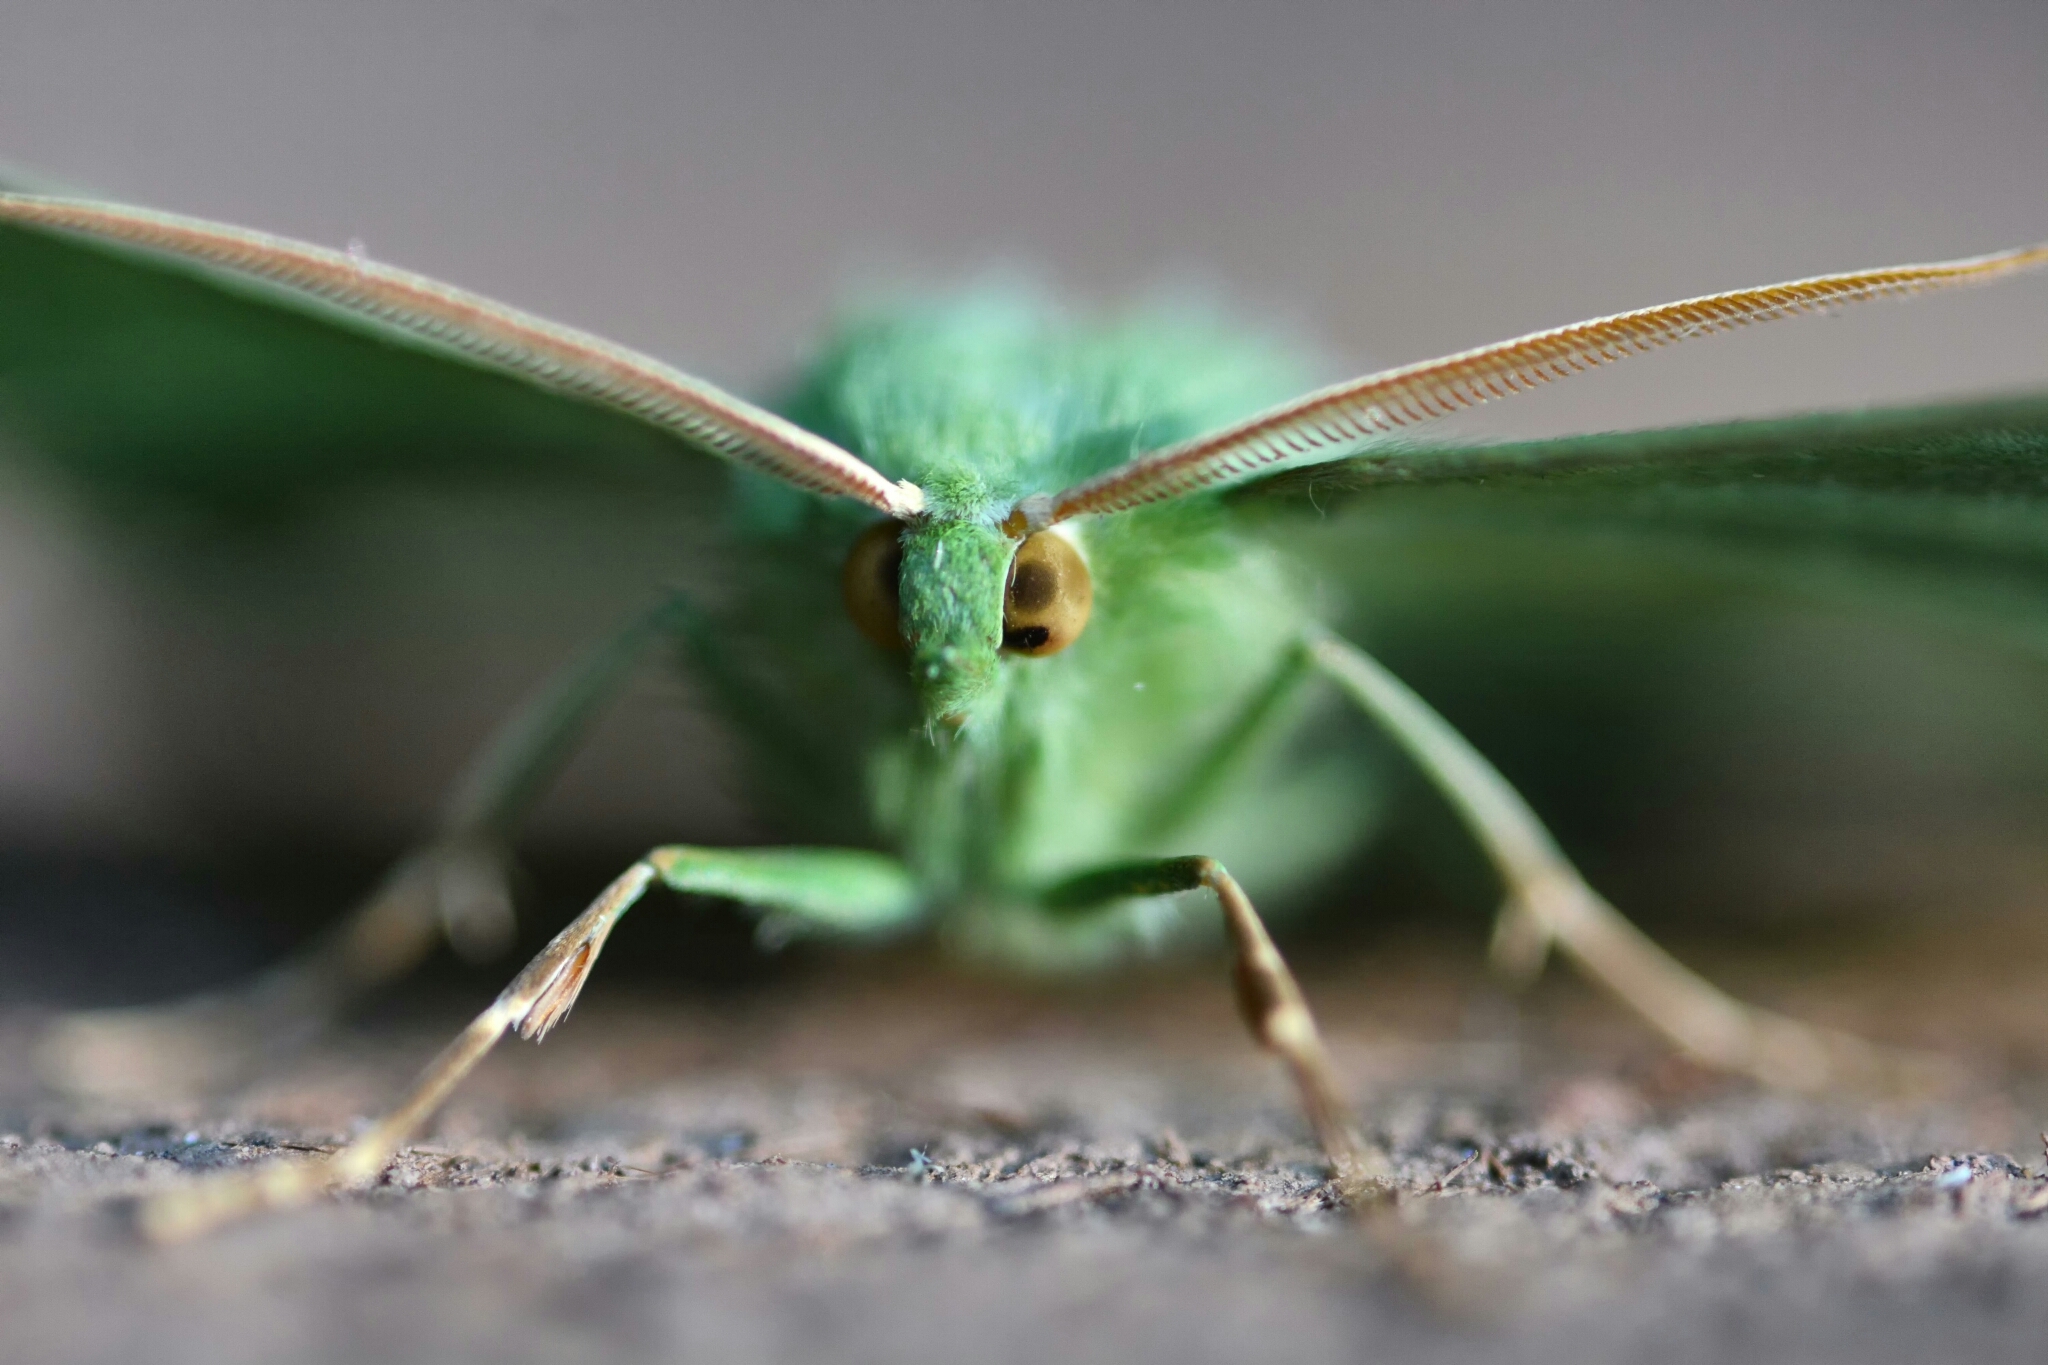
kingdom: Animalia
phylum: Arthropoda
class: Insecta
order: Lepidoptera
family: Geometridae
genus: Geometra
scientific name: Geometra papilionaria
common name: Large emerald
